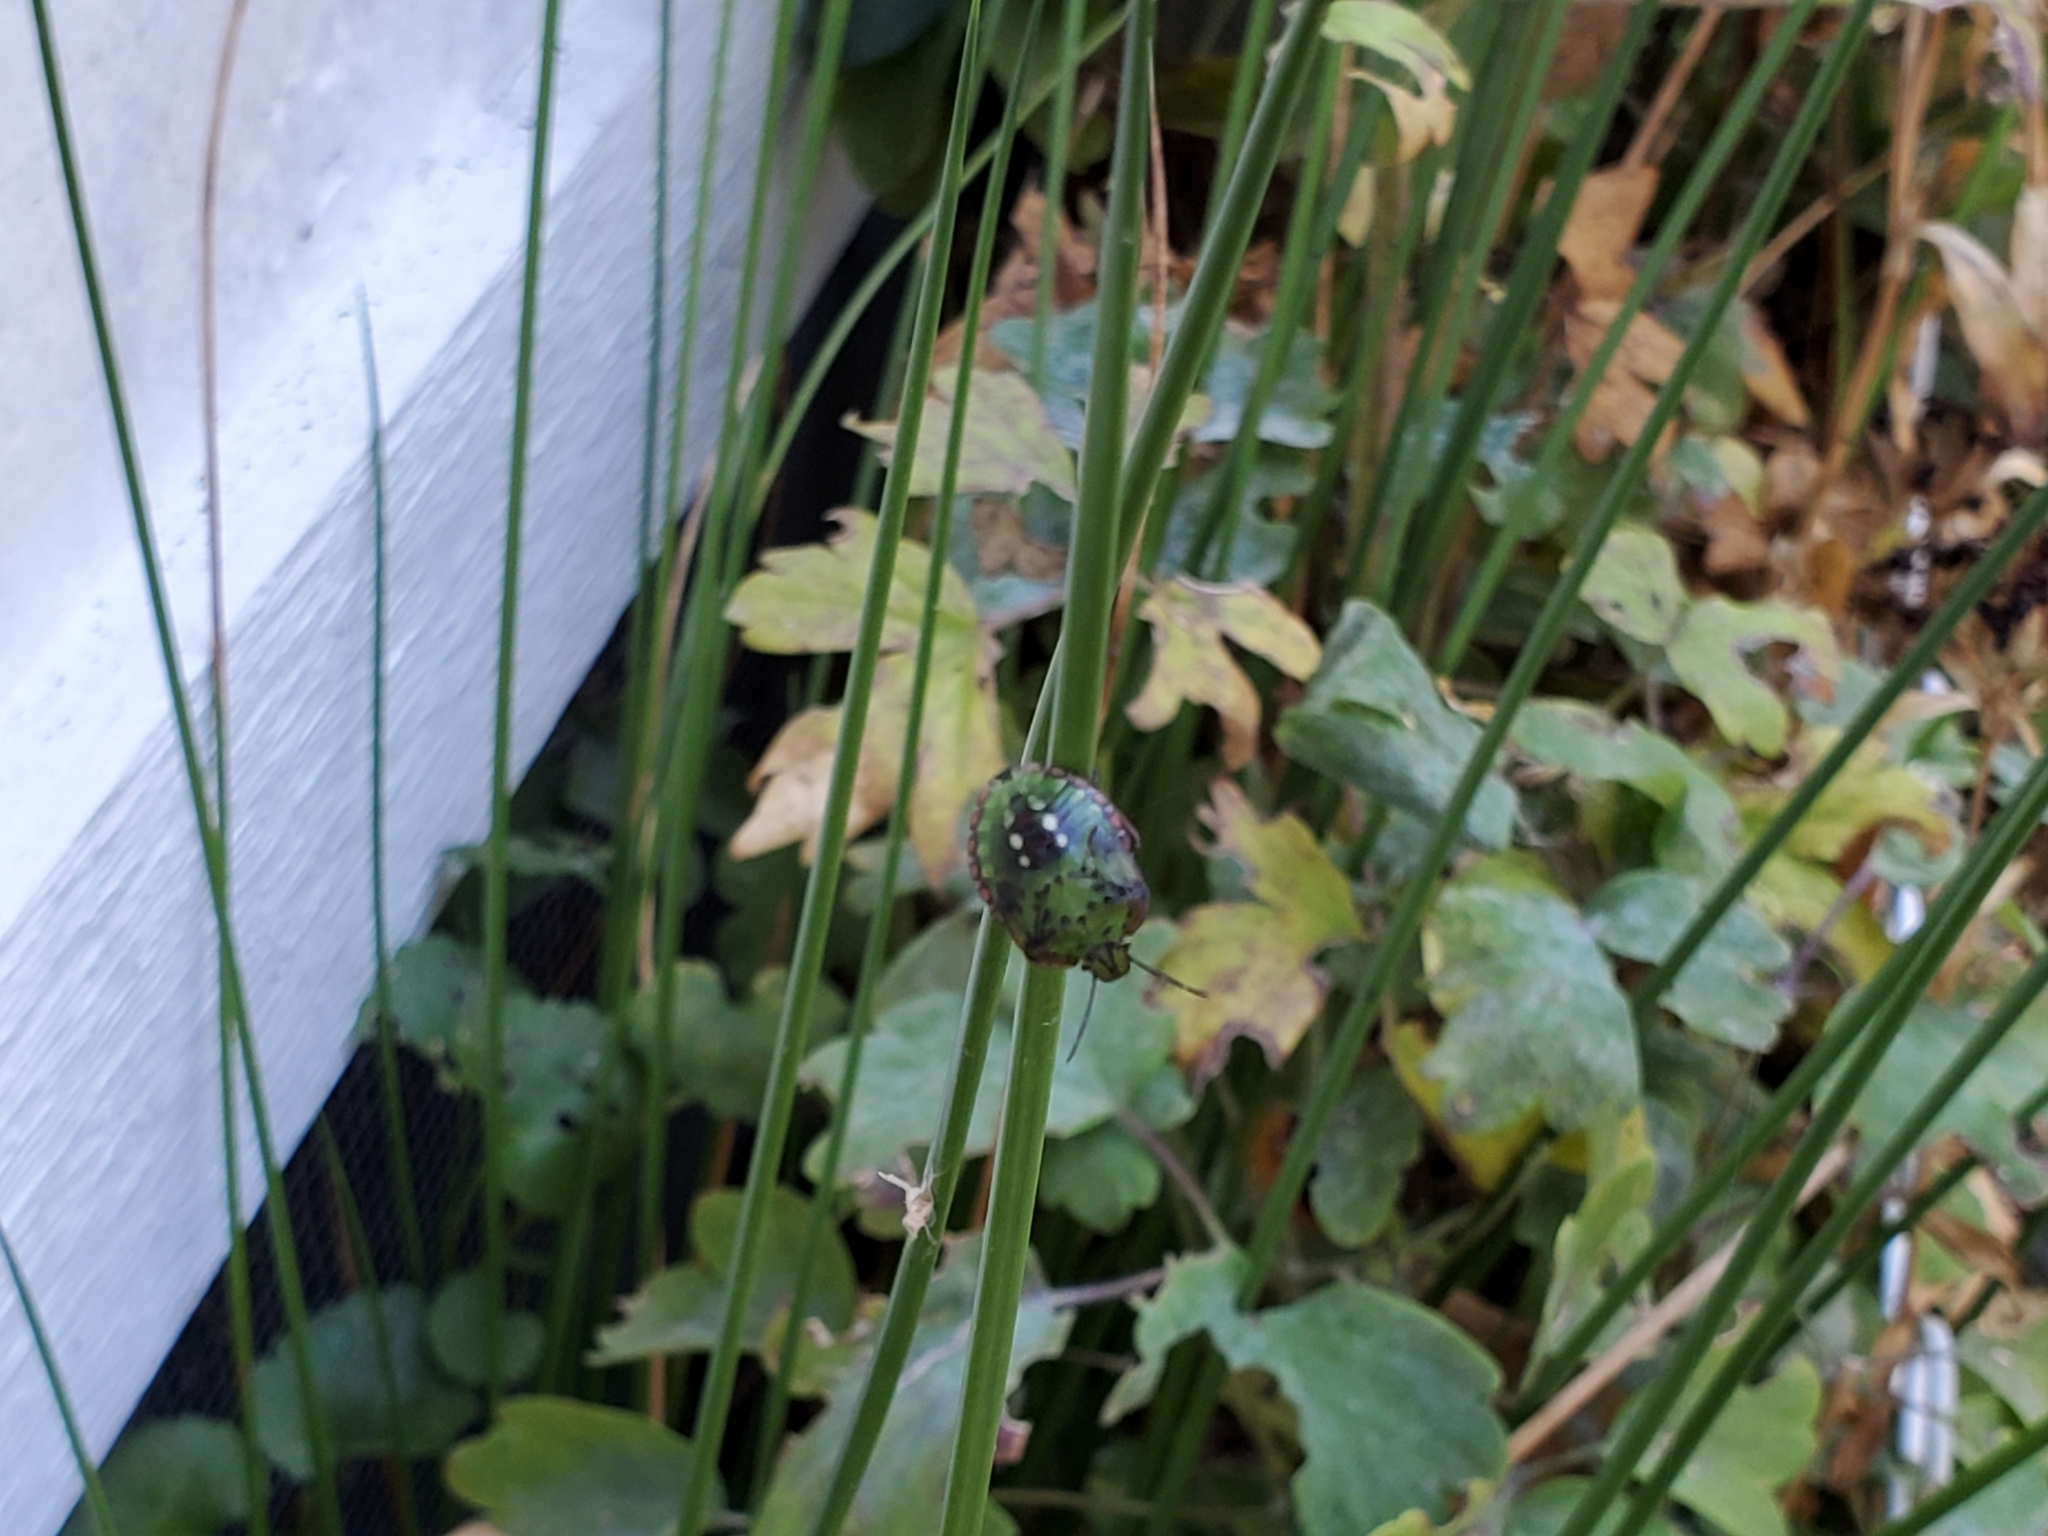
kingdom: Animalia
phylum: Arthropoda
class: Insecta
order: Hemiptera
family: Pentatomidae
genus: Nezara
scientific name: Nezara viridula
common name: Southern green stink bug
